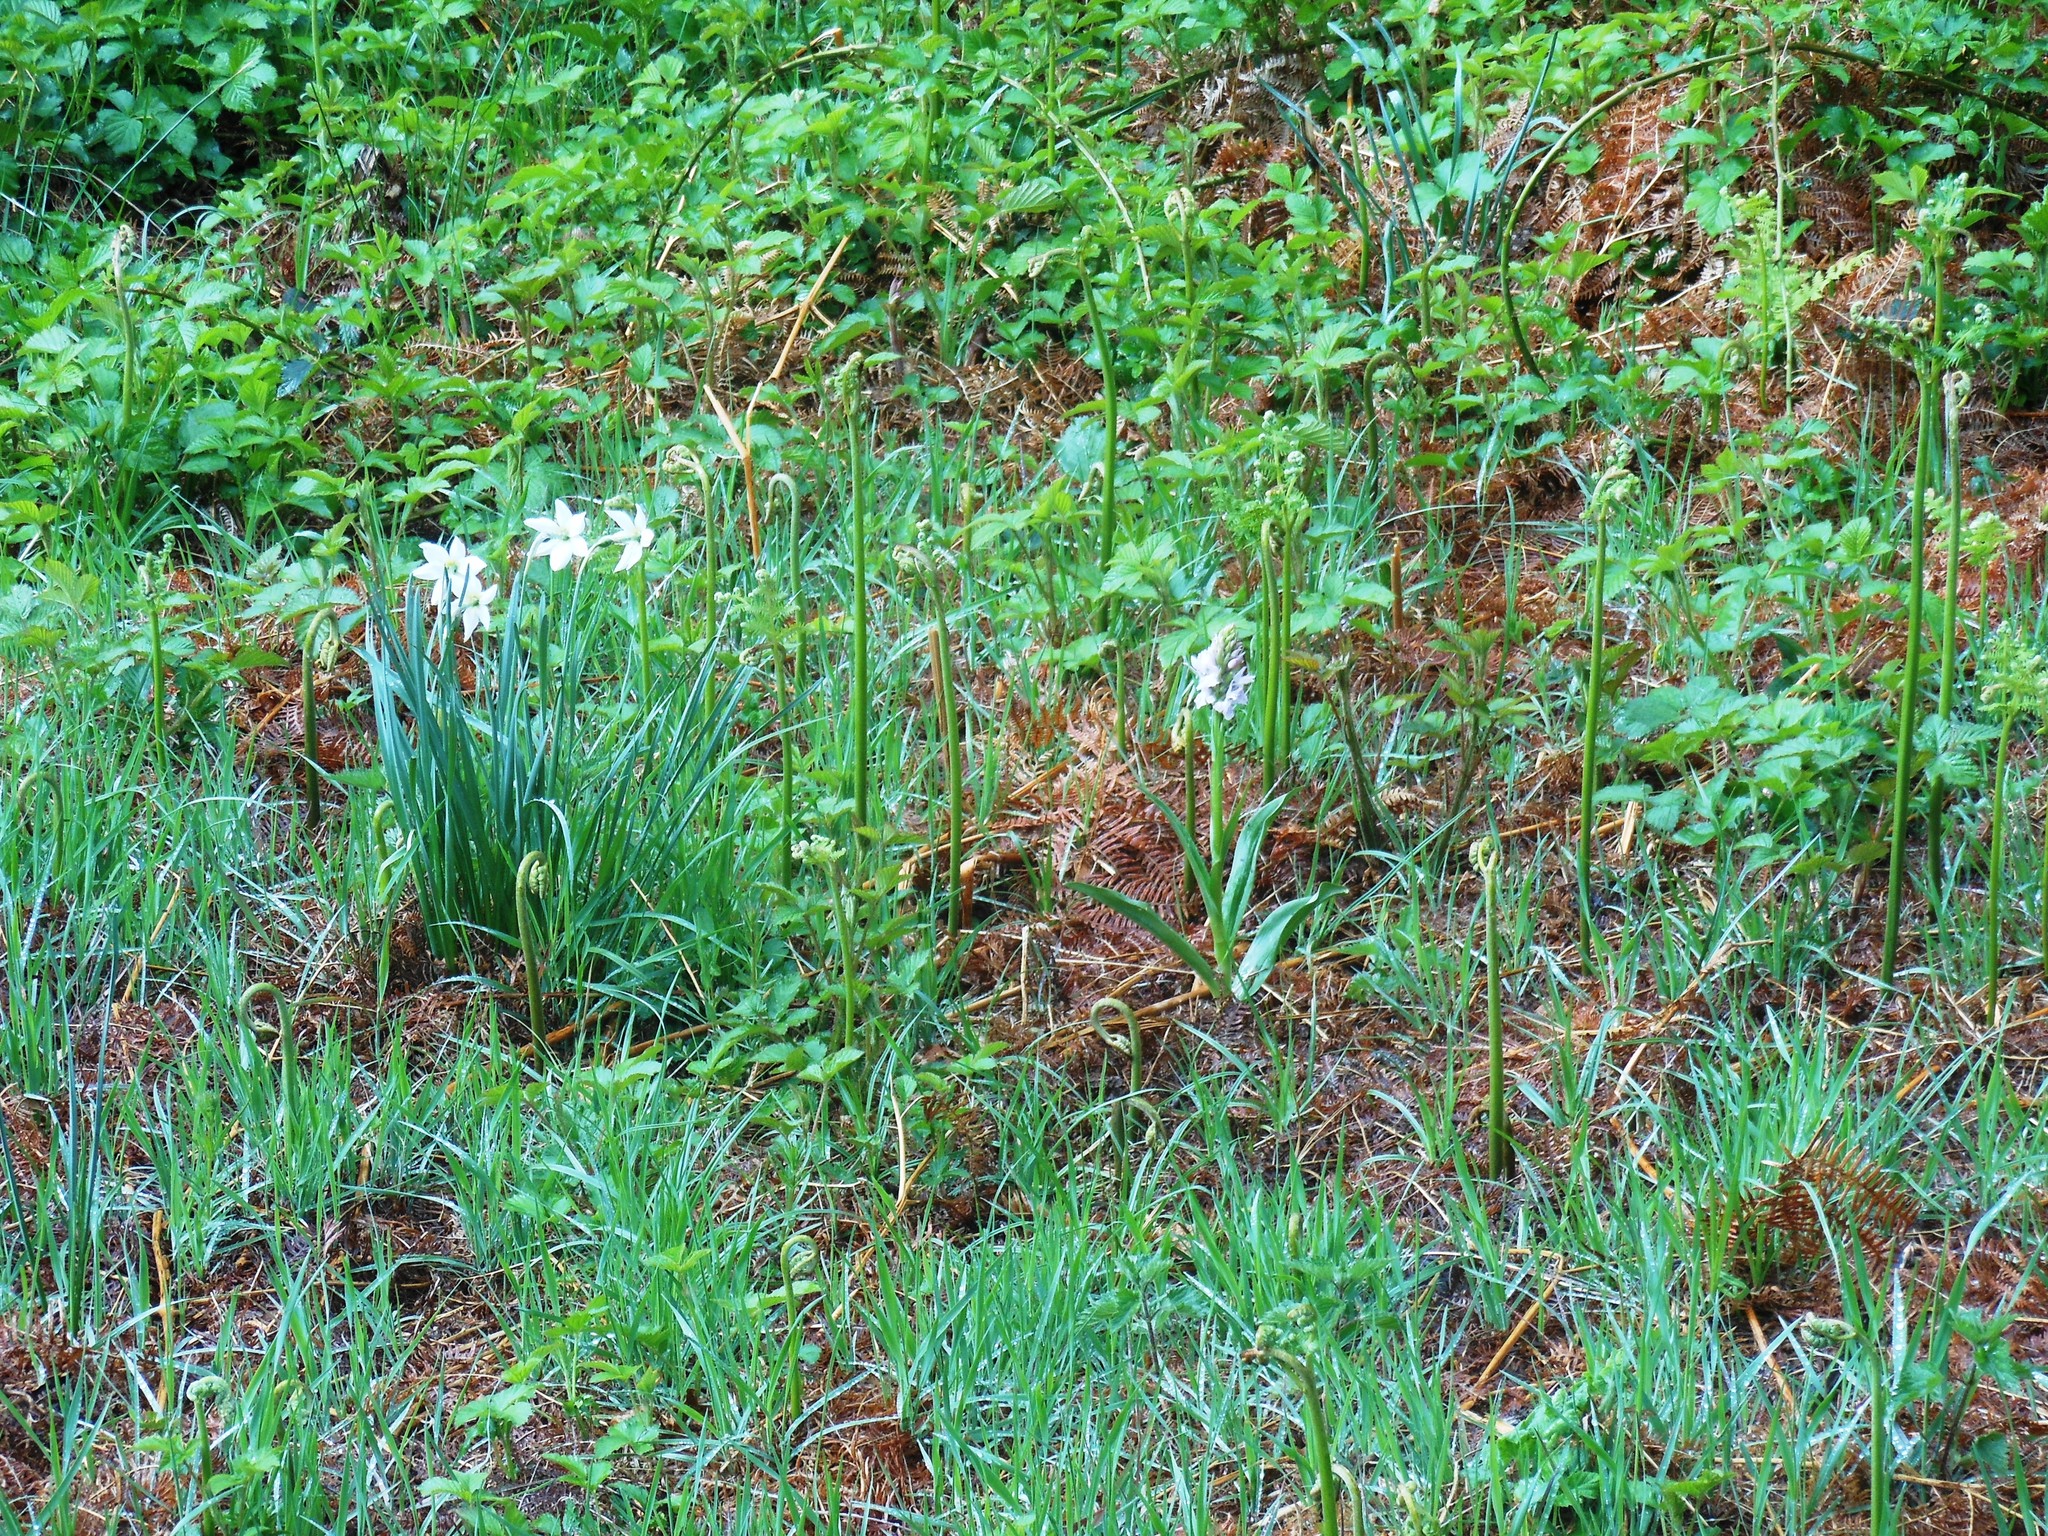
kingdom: Plantae
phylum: Tracheophyta
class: Liliopsida
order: Asparagales
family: Amaryllidaceae
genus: Narcissus
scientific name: Narcissus poeticus
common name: Pheasant's-eye daffodil
